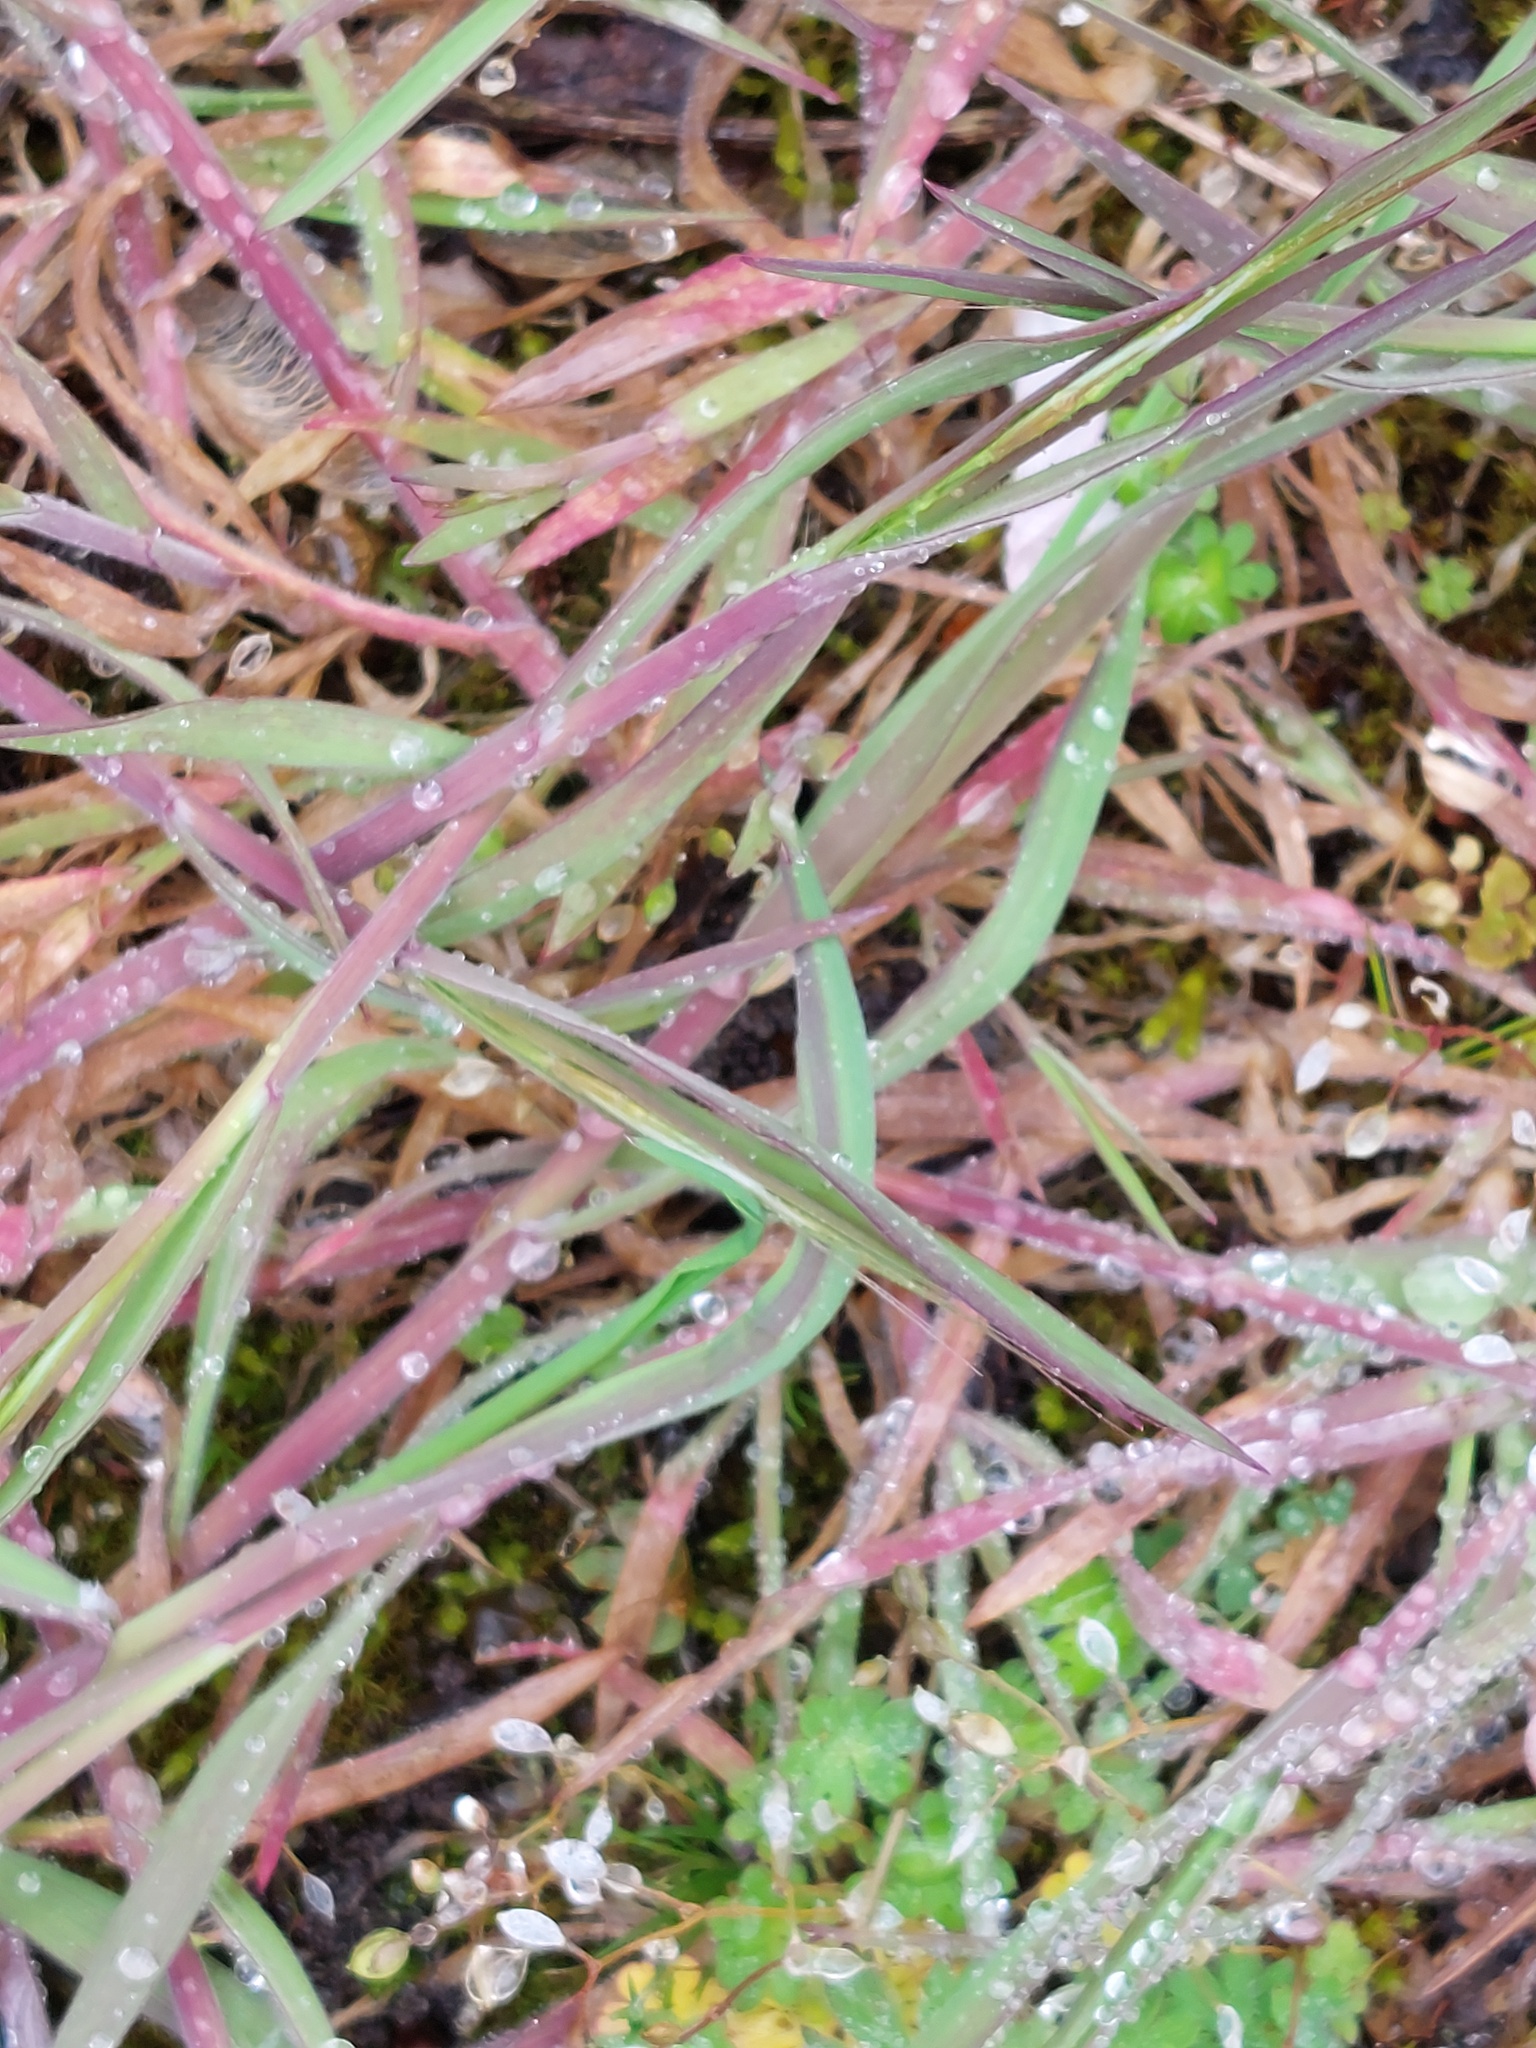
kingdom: Plantae
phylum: Tracheophyta
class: Liliopsida
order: Poales
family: Poaceae
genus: Holcus
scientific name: Holcus lanatus
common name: Yorkshire-fog
